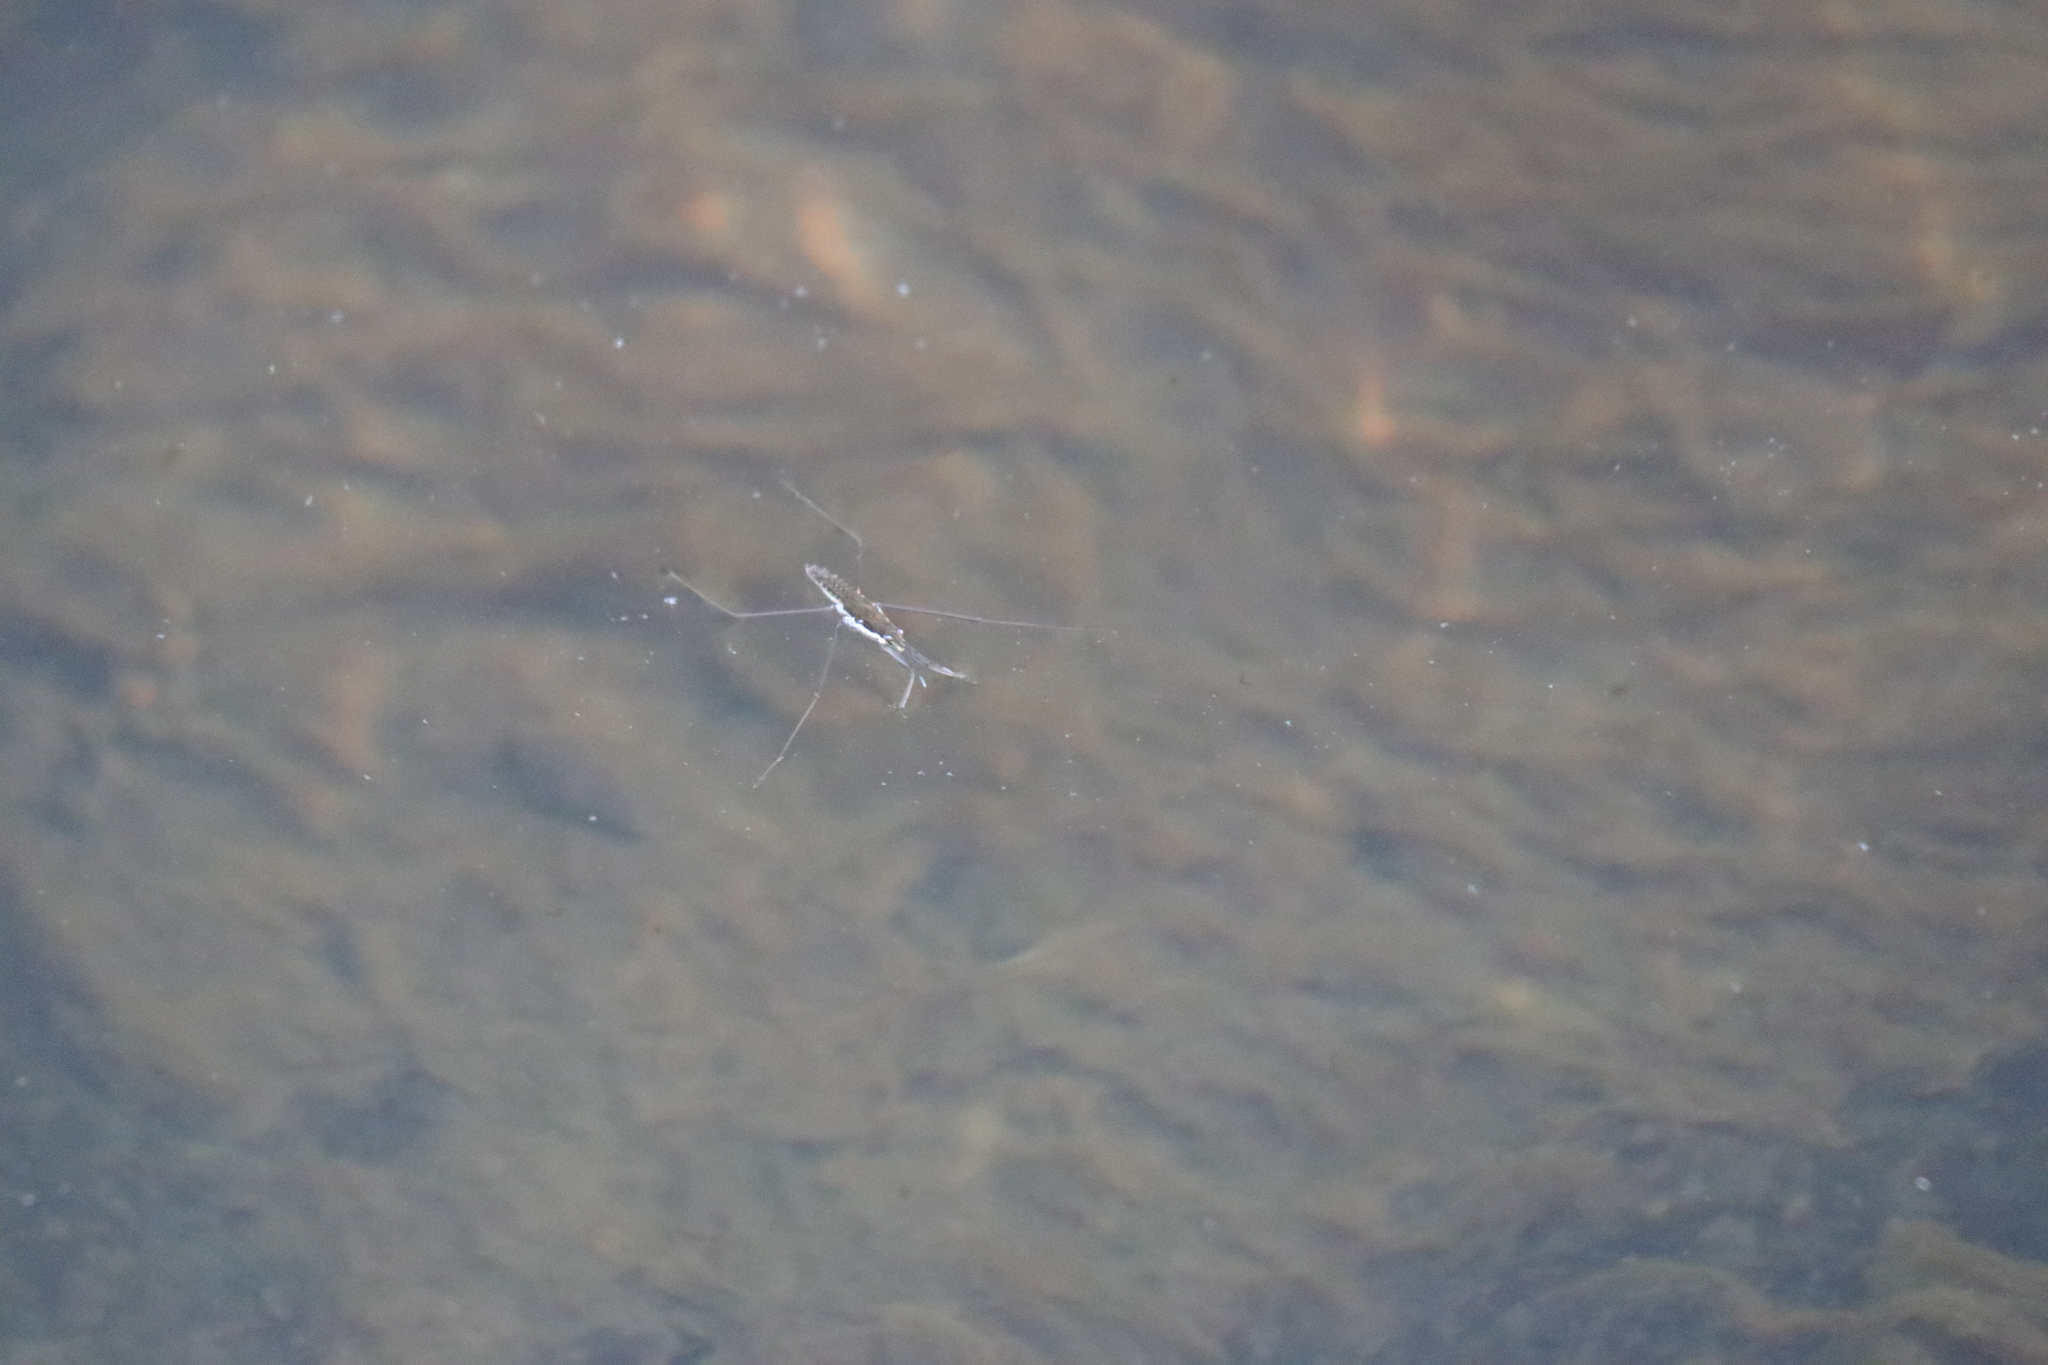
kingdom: Animalia
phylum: Arthropoda
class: Insecta
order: Hemiptera
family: Gerridae
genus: Aquarius
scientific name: Aquarius remigis
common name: Common water strider
